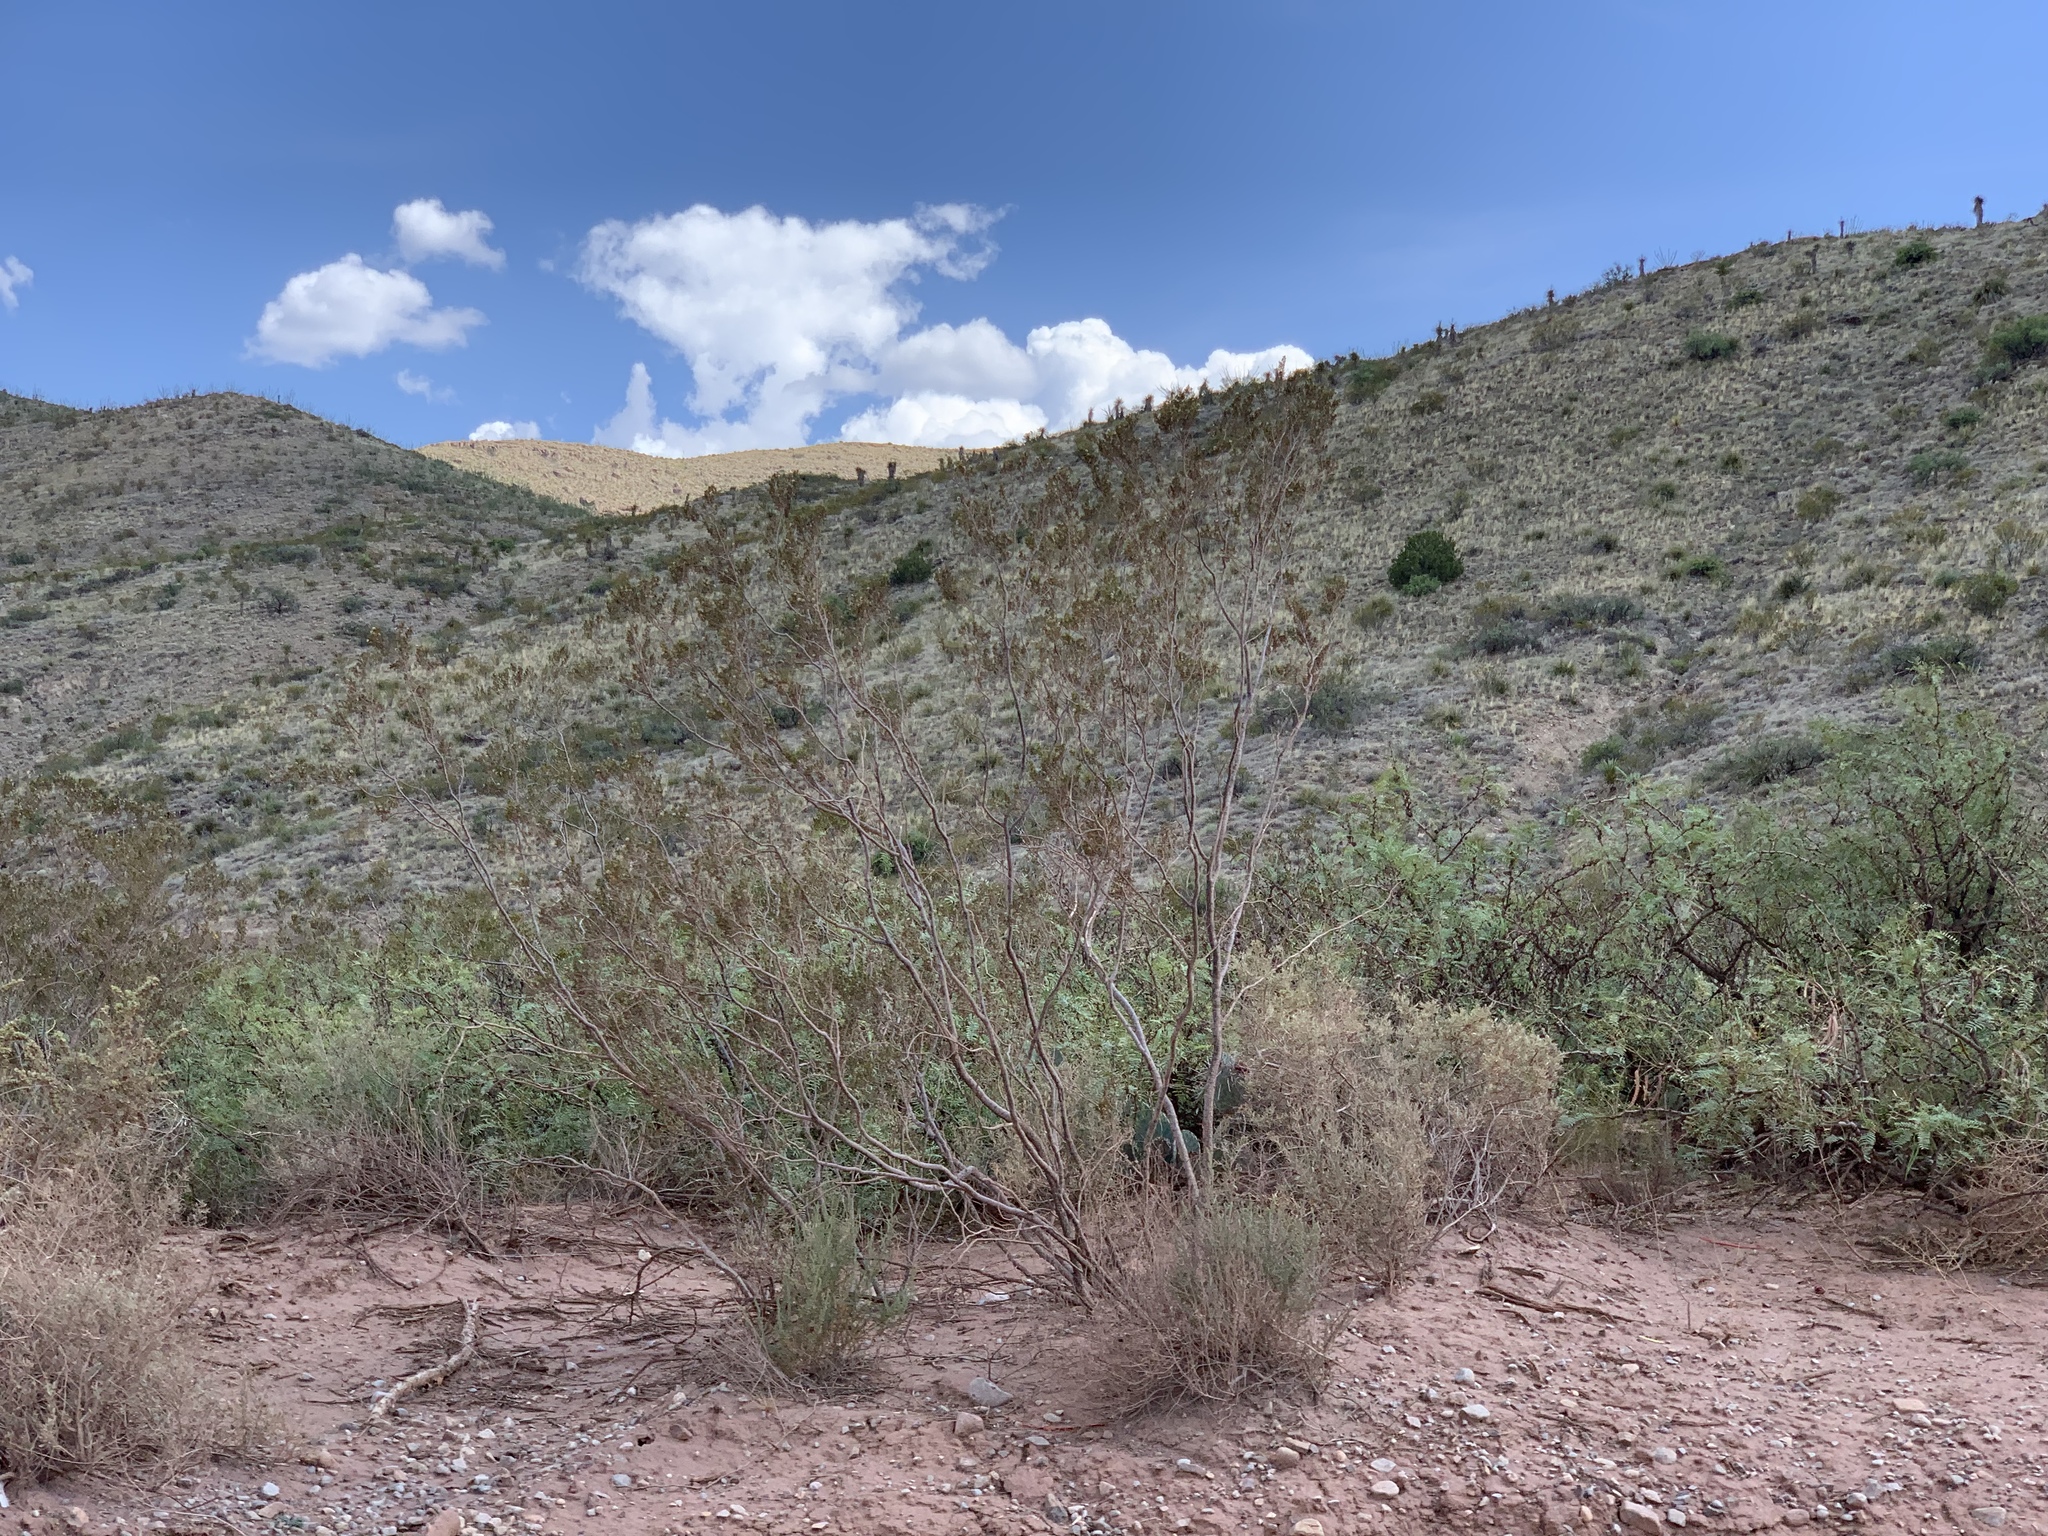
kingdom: Plantae
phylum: Tracheophyta
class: Magnoliopsida
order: Zygophyllales
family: Zygophyllaceae
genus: Larrea
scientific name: Larrea tridentata
